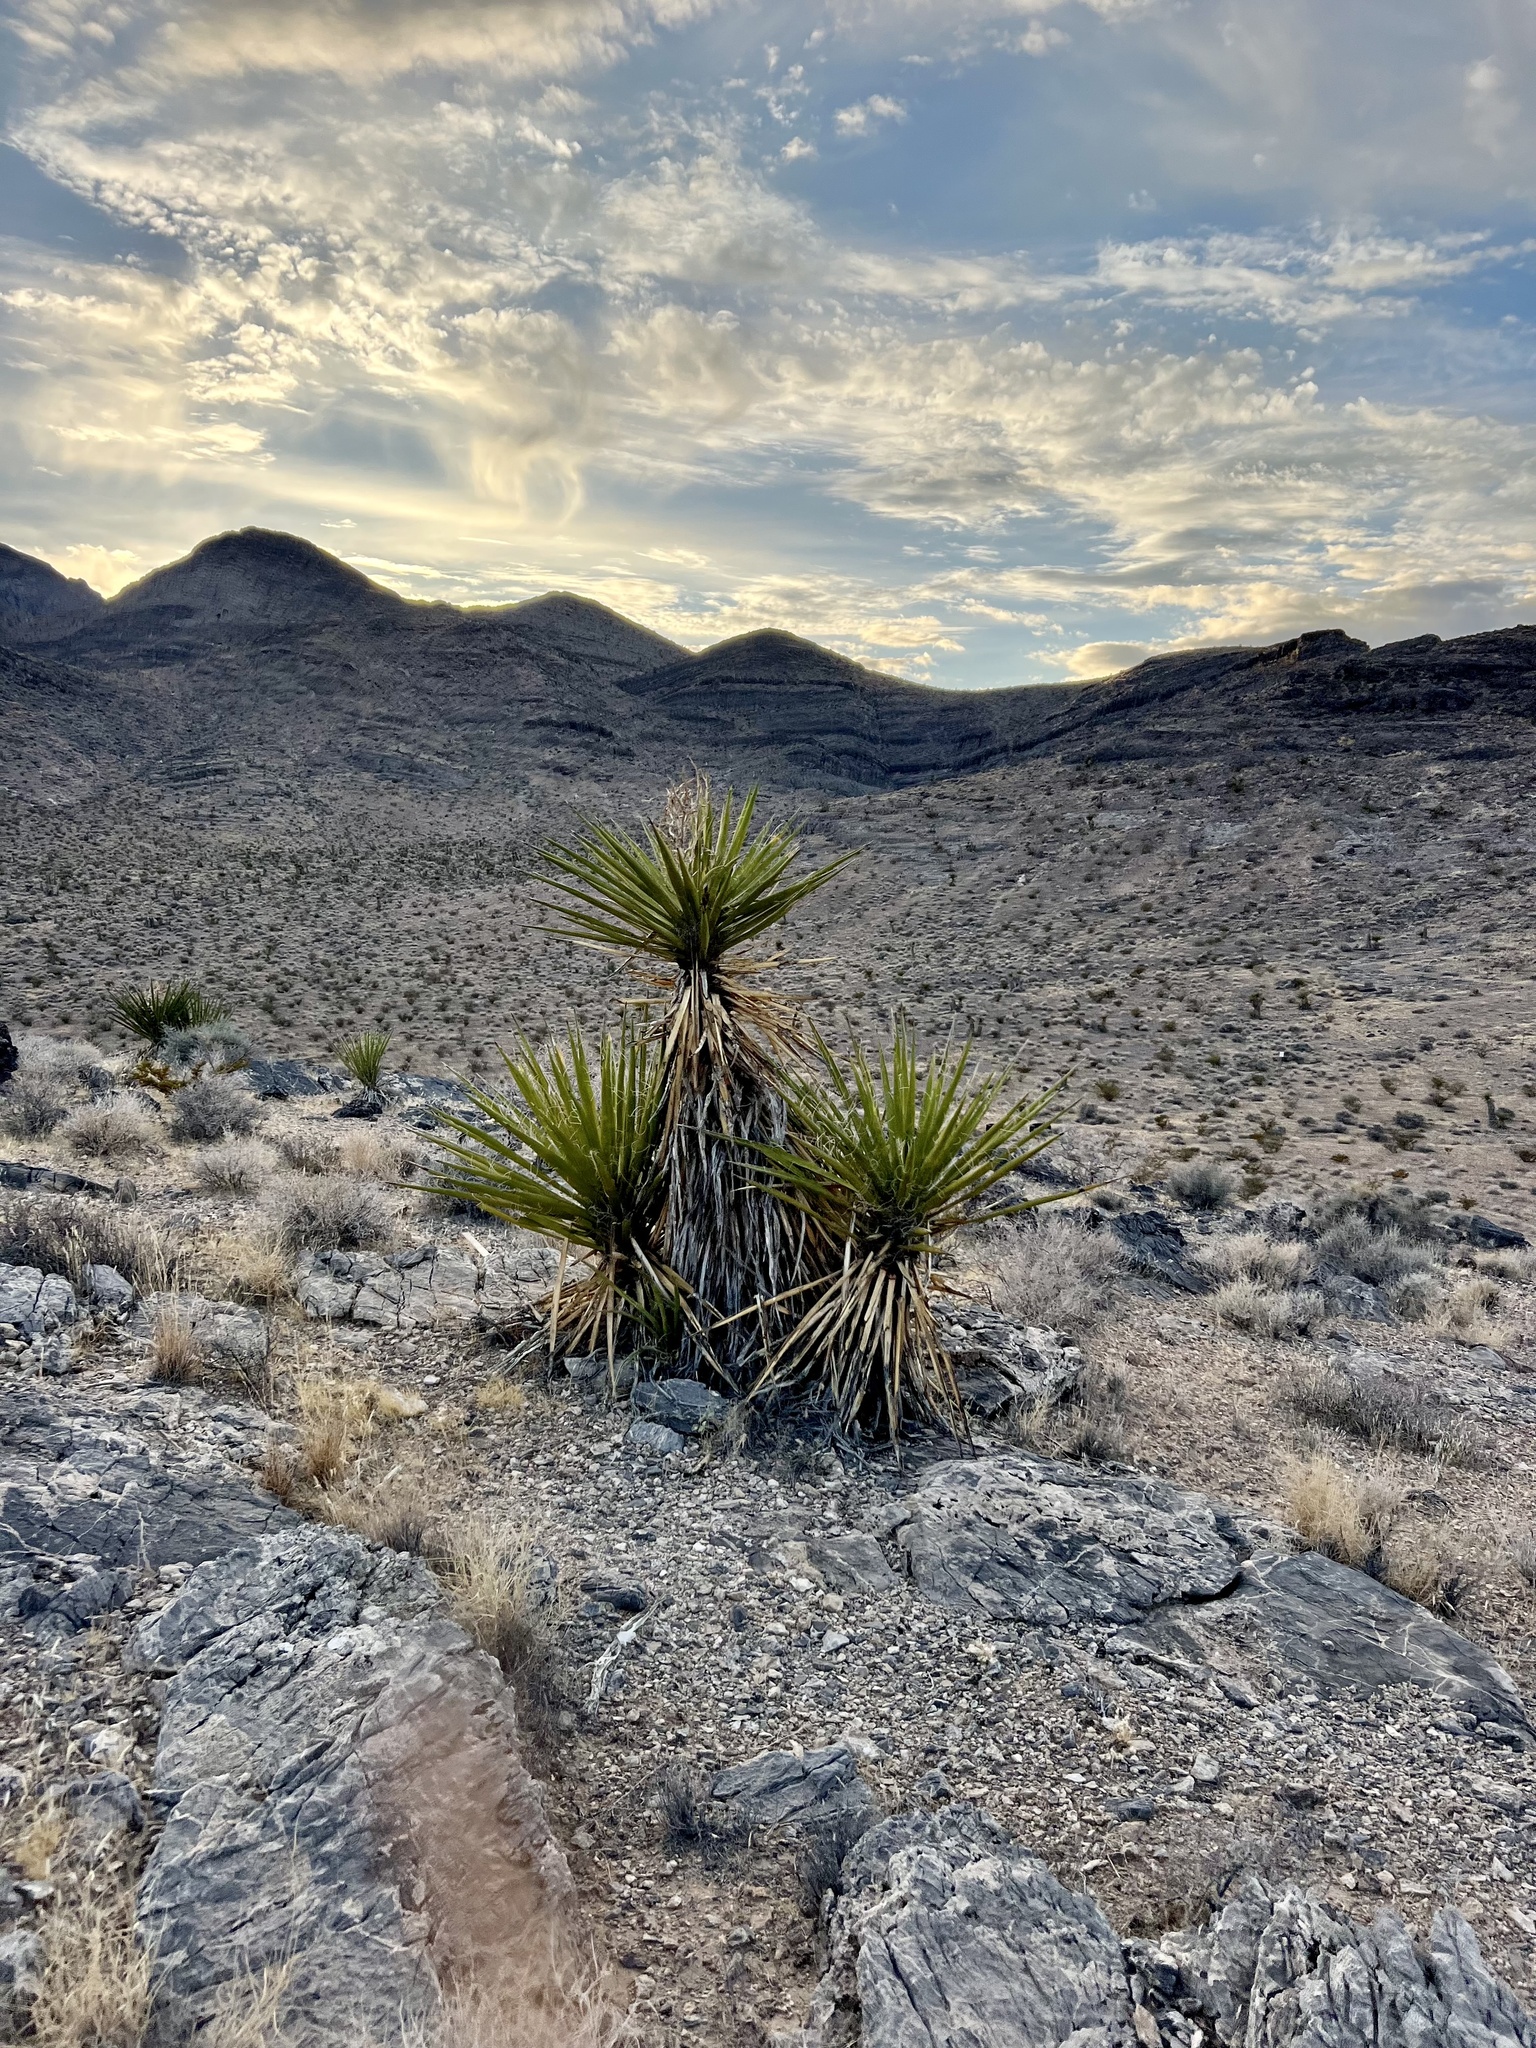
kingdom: Plantae
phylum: Tracheophyta
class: Liliopsida
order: Asparagales
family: Asparagaceae
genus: Yucca
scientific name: Yucca schidigera
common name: Mojave yucca
